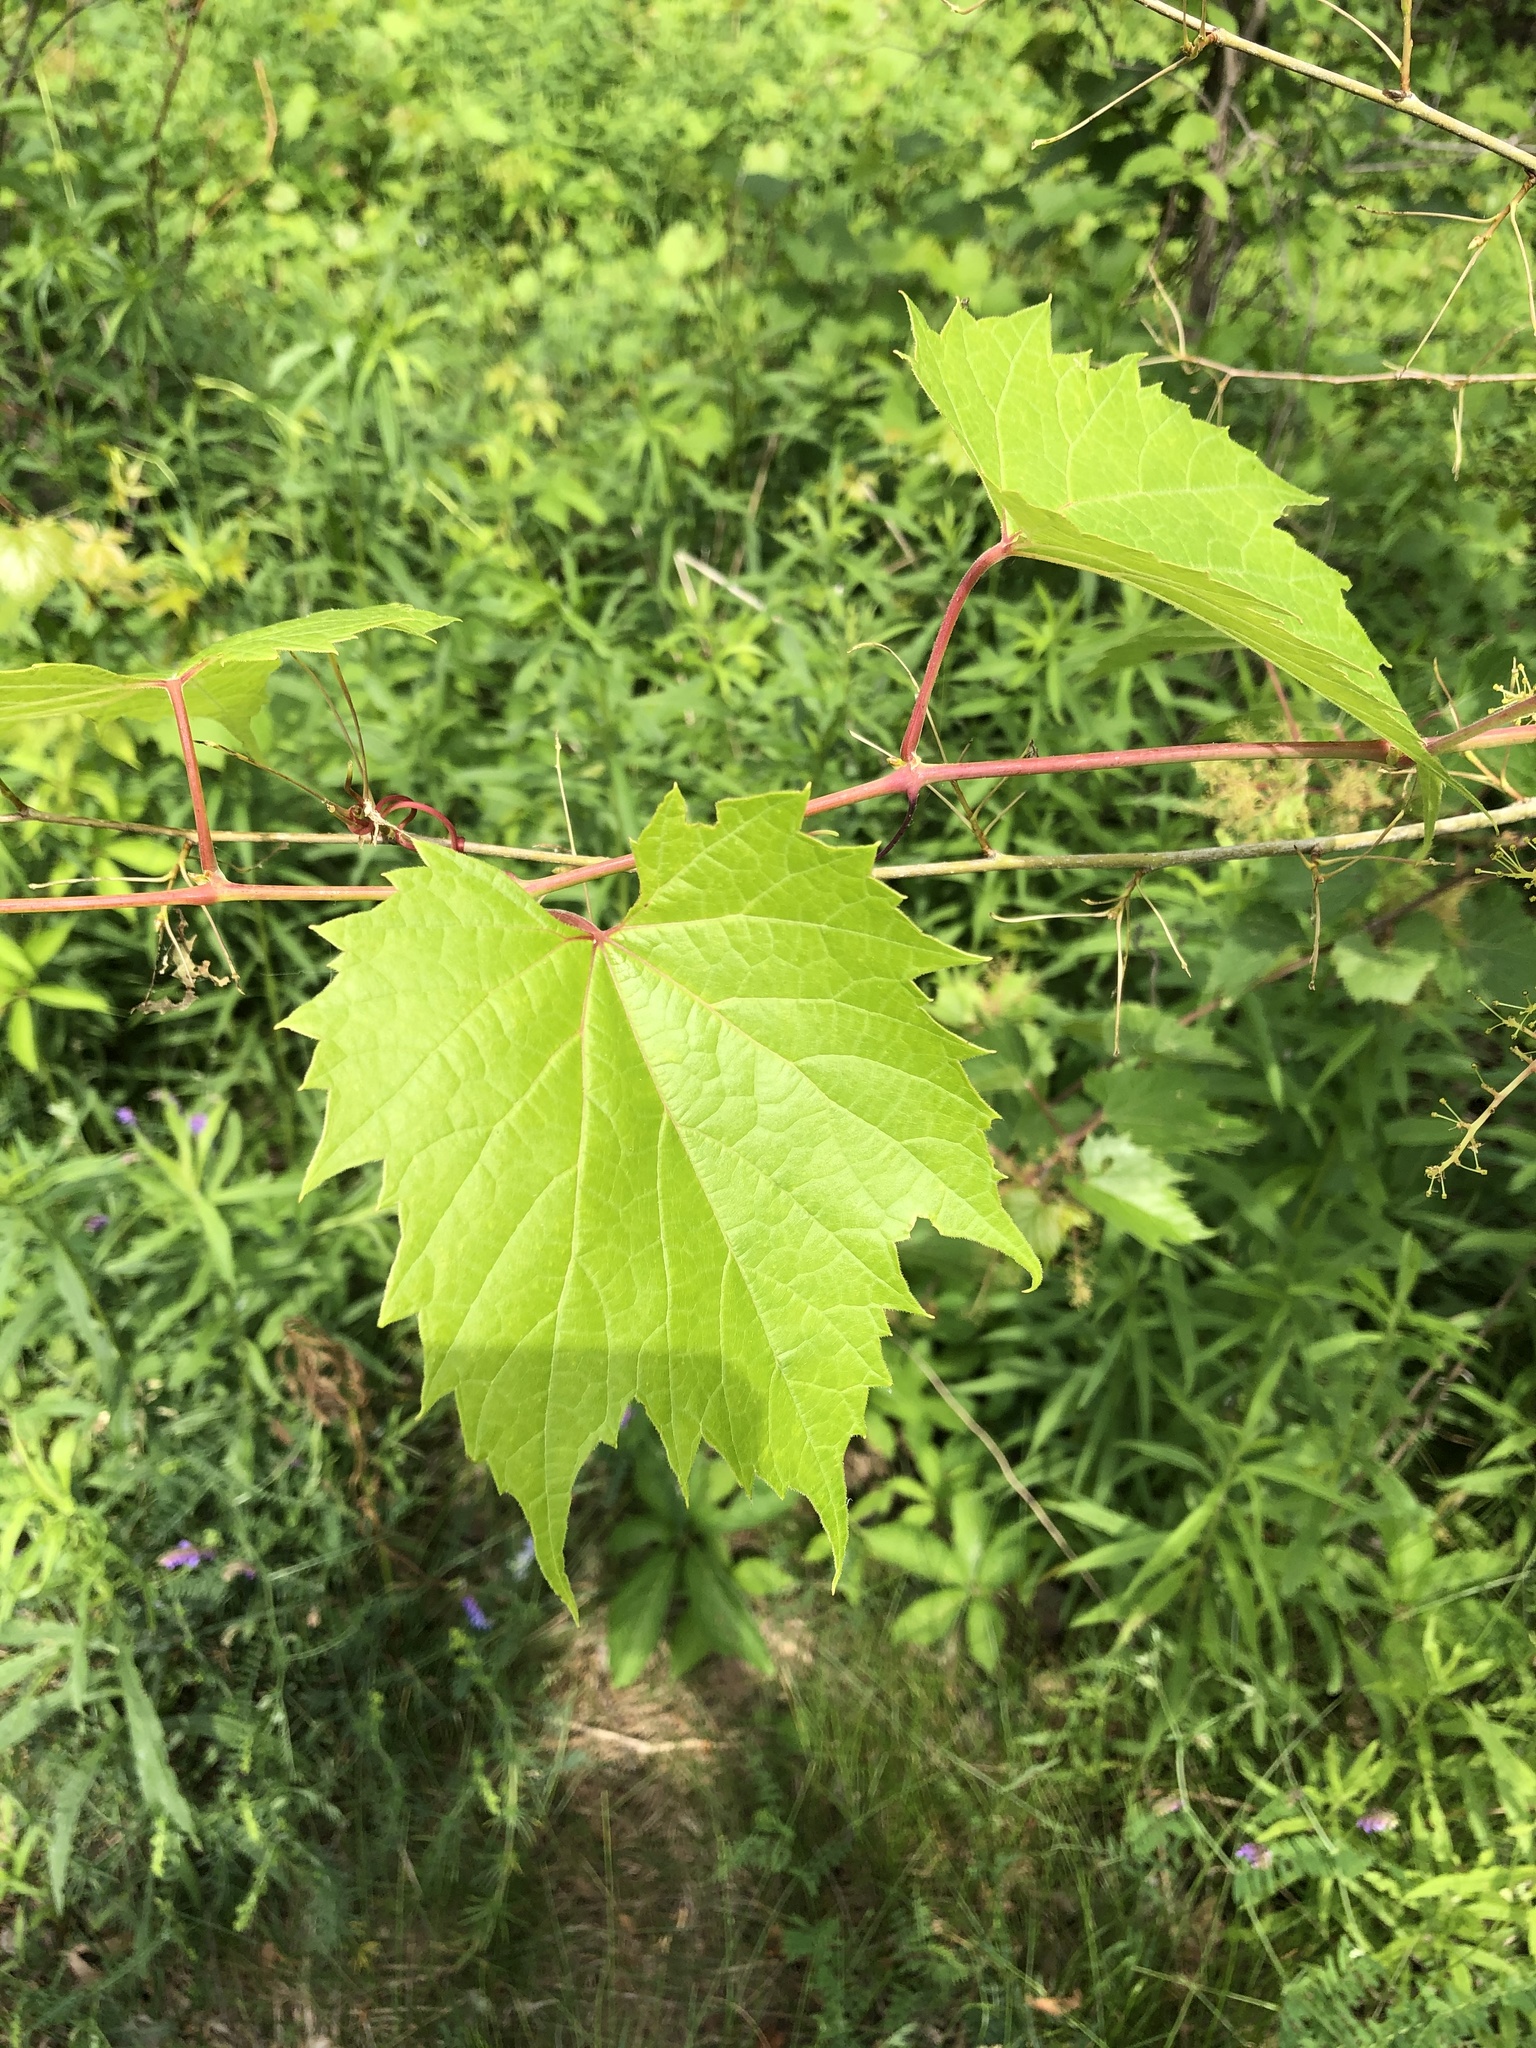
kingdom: Plantae
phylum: Tracheophyta
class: Magnoliopsida
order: Vitales
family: Vitaceae
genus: Vitis
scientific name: Vitis riparia
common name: Frost grape
